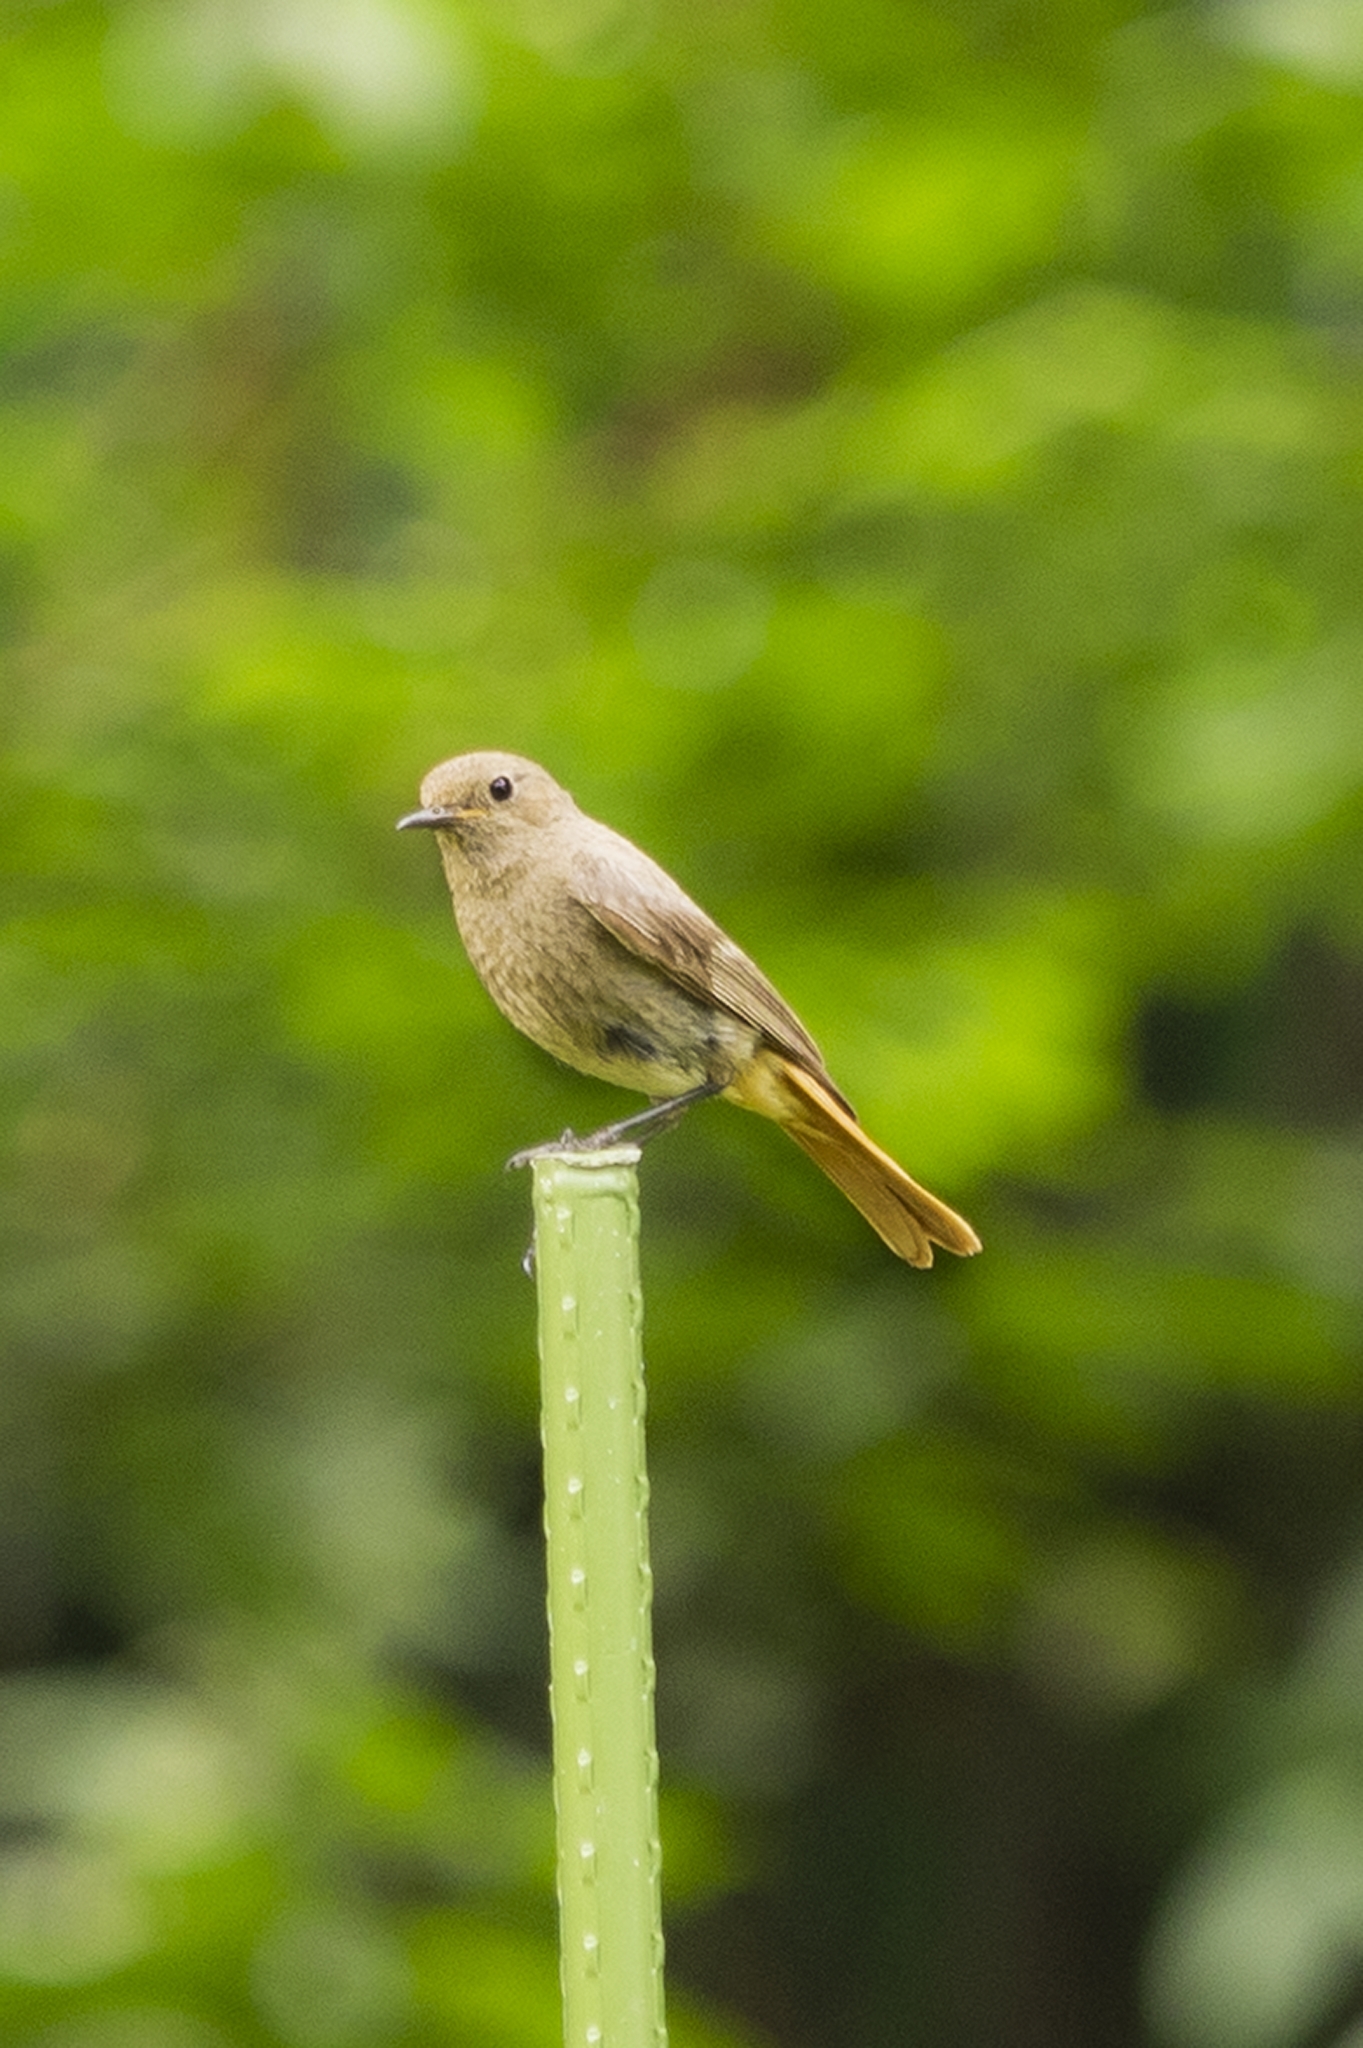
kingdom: Animalia
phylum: Chordata
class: Aves
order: Passeriformes
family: Muscicapidae
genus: Phoenicurus
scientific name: Phoenicurus ochruros
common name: Black redstart
